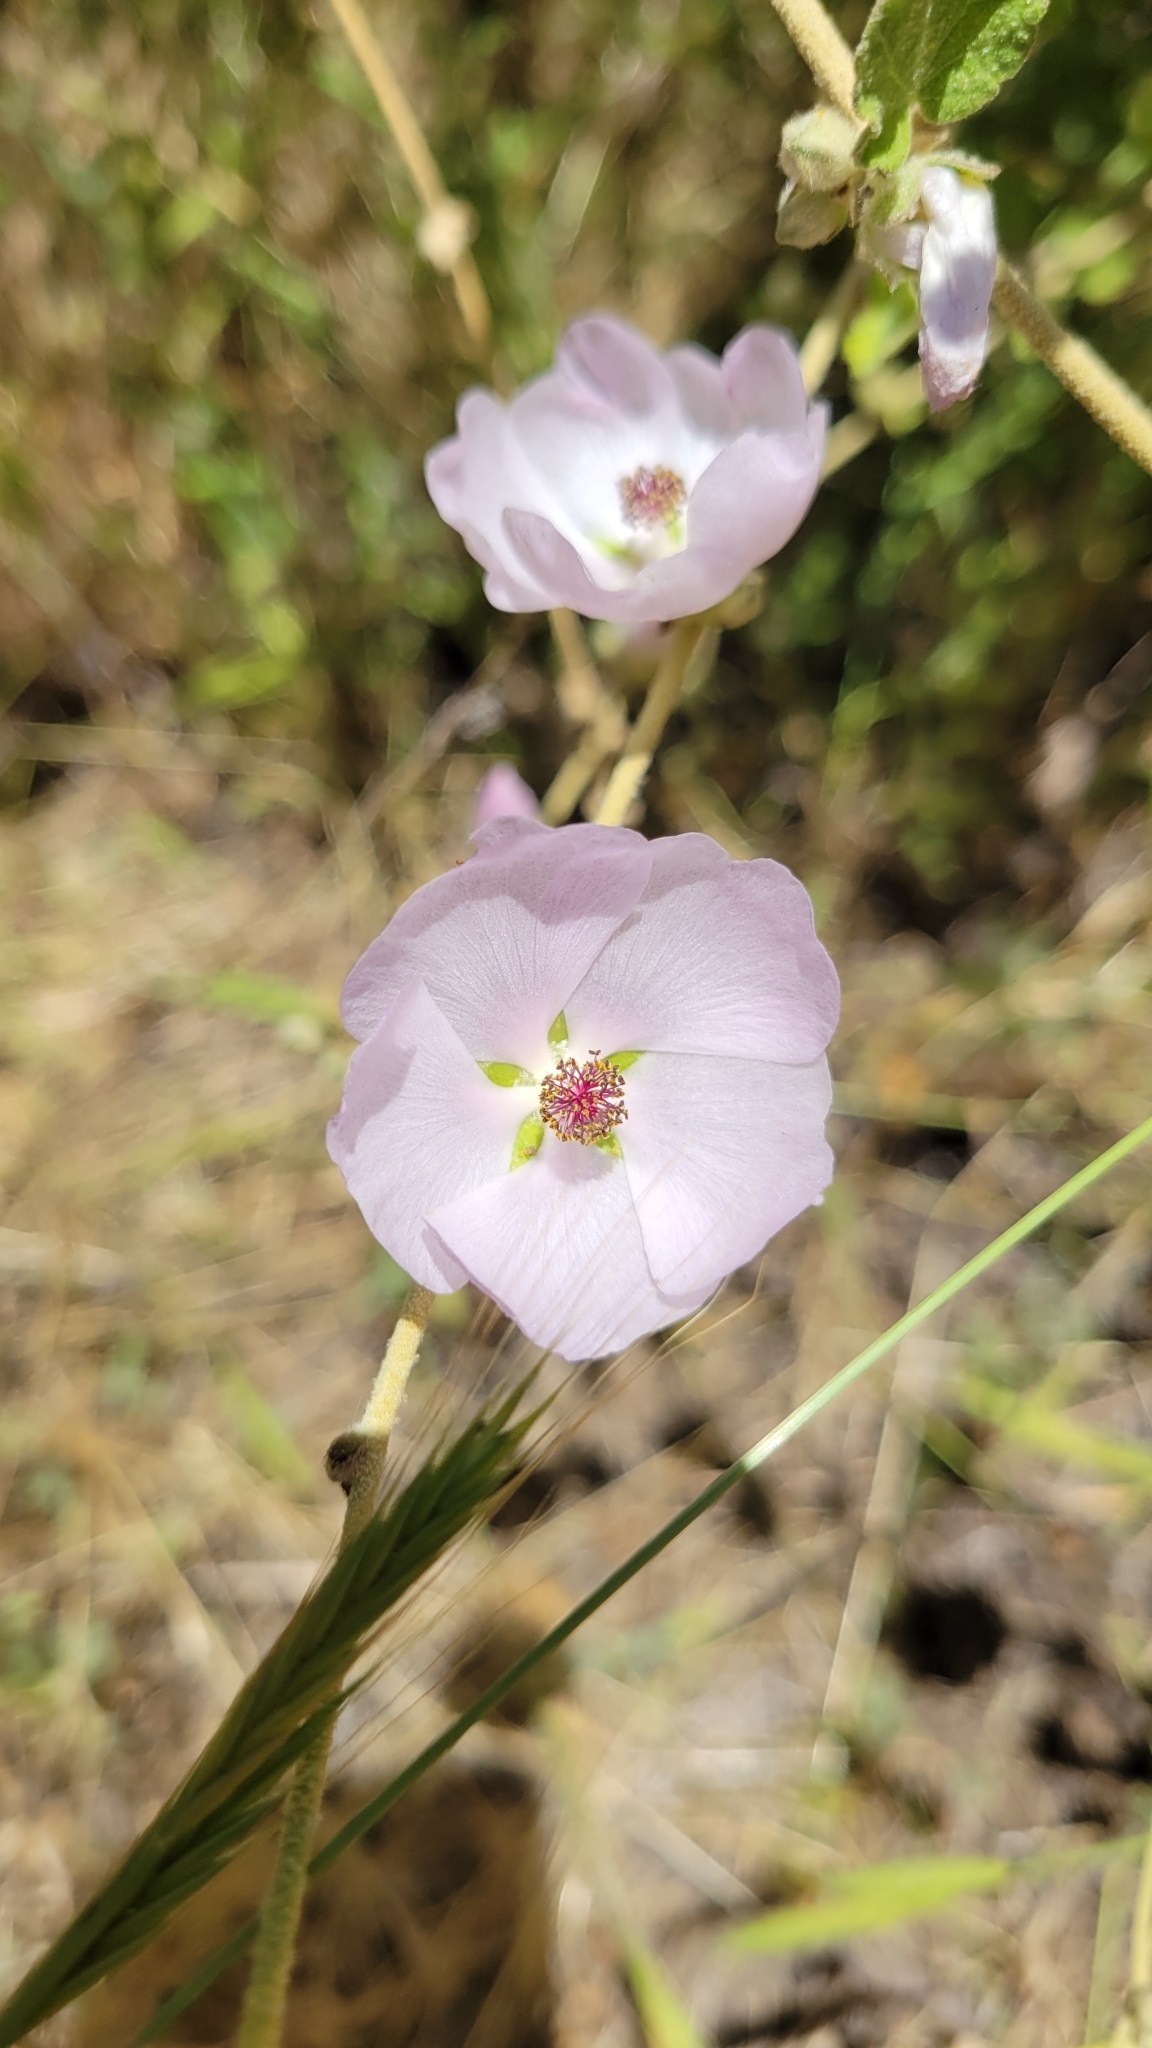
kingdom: Plantae
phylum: Tracheophyta
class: Magnoliopsida
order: Malvales
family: Malvaceae
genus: Malacothamnus
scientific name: Malacothamnus fasciculatus
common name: Sant cruz island bush-mallow
